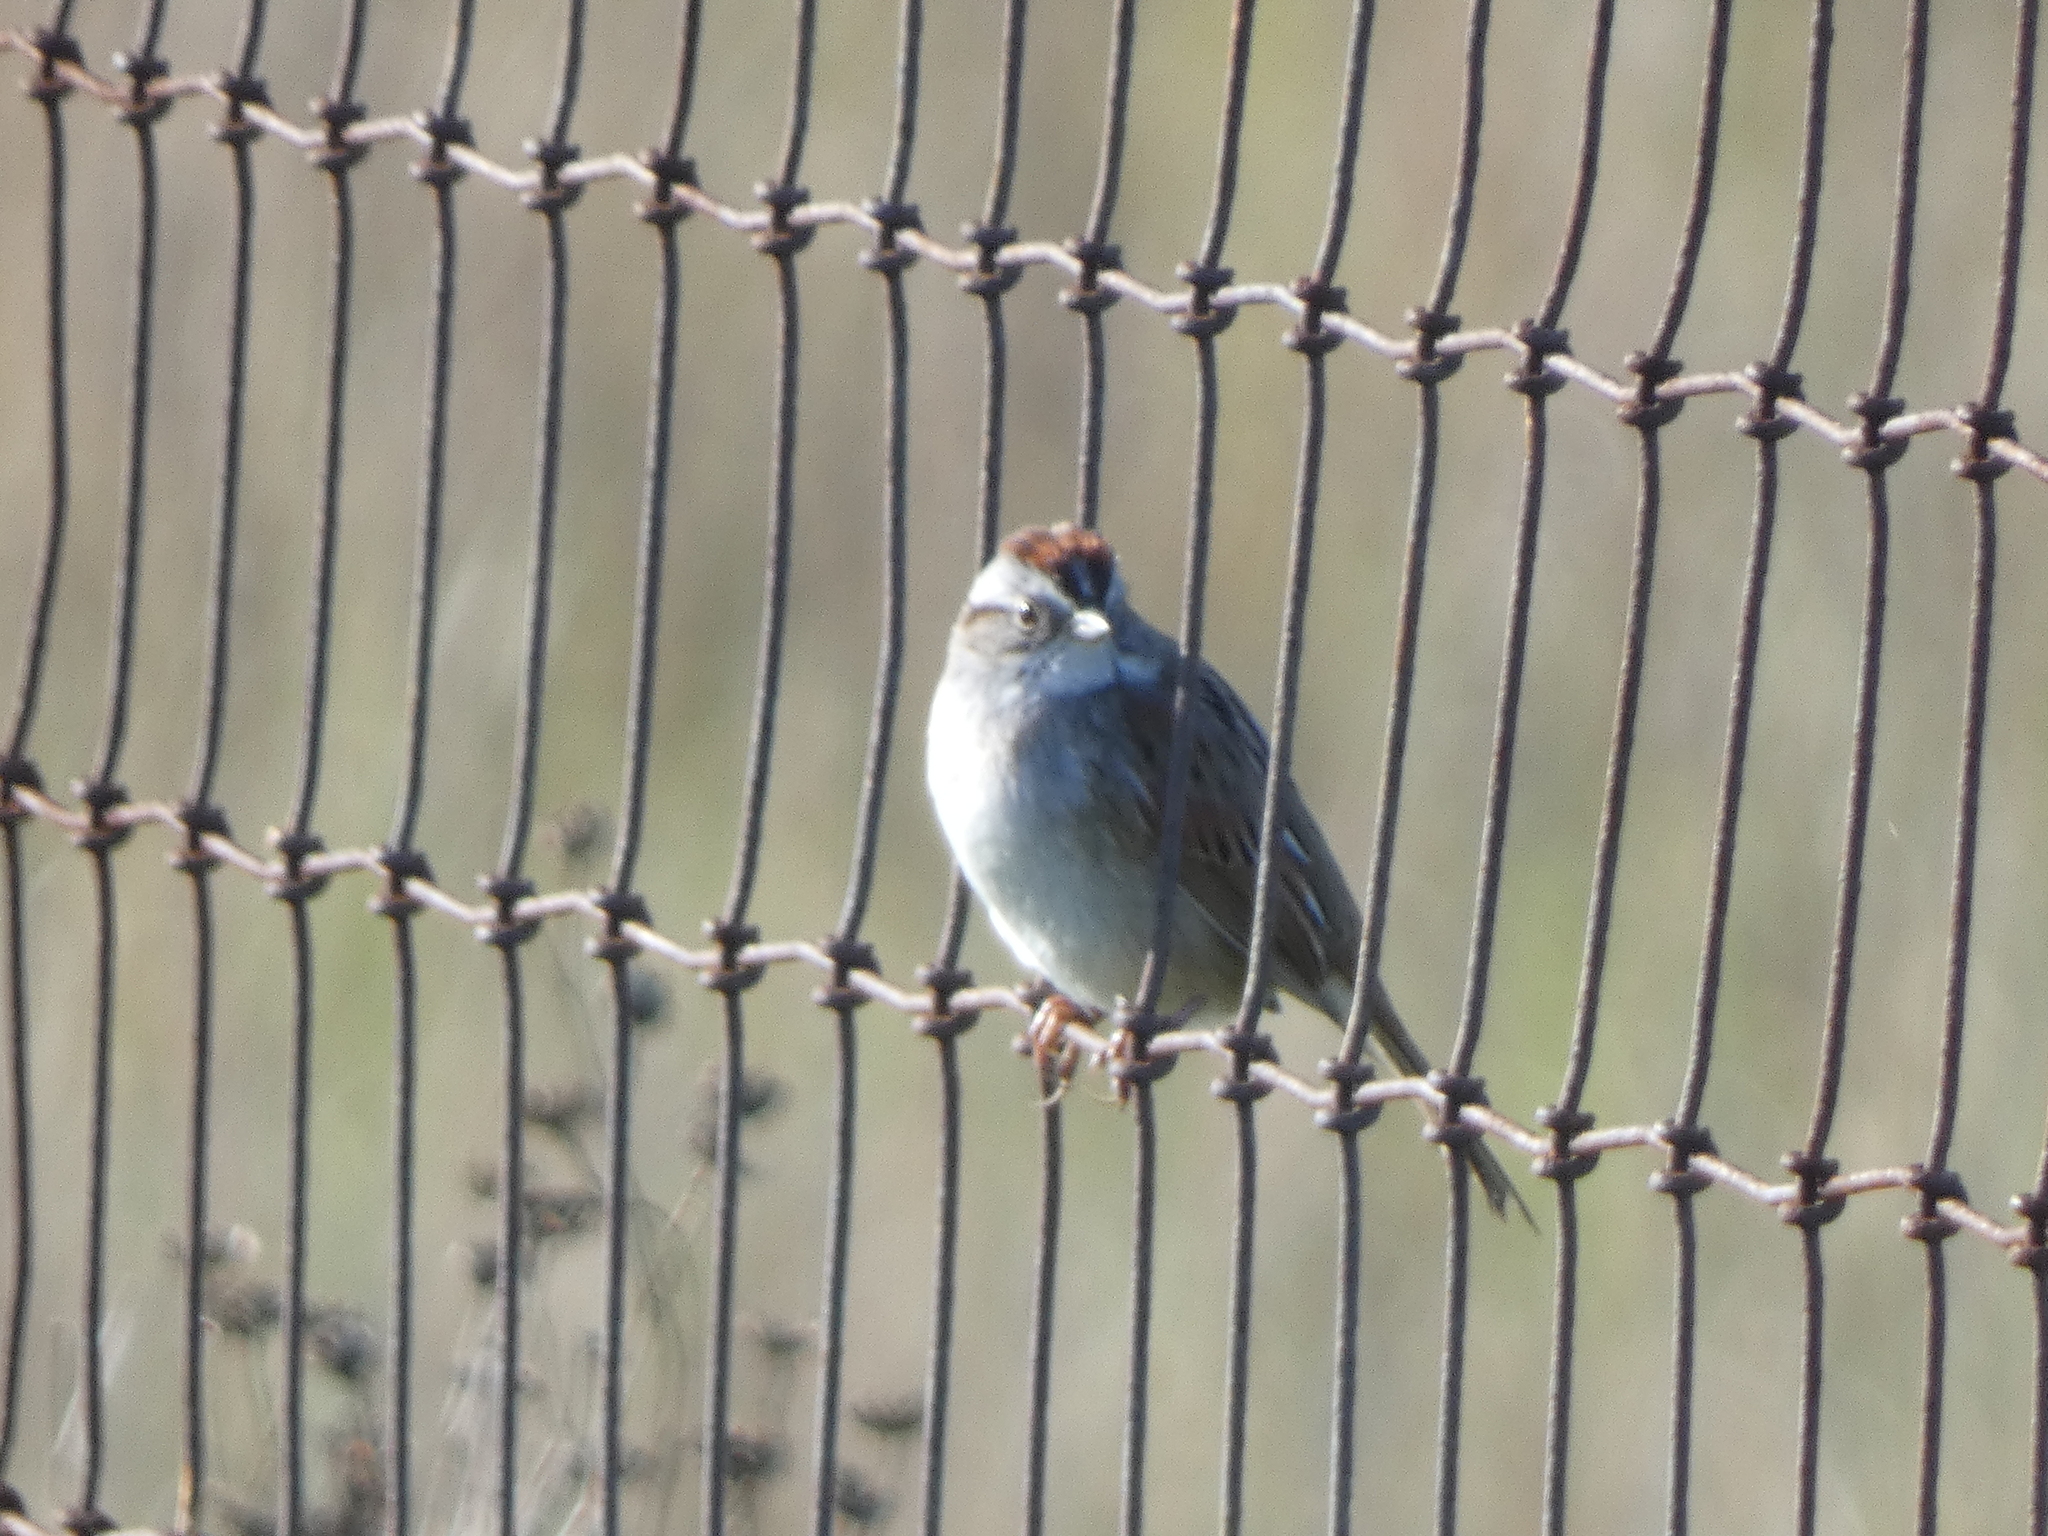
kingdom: Animalia
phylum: Chordata
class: Aves
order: Passeriformes
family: Passerellidae
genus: Melospiza
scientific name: Melospiza georgiana
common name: Swamp sparrow
